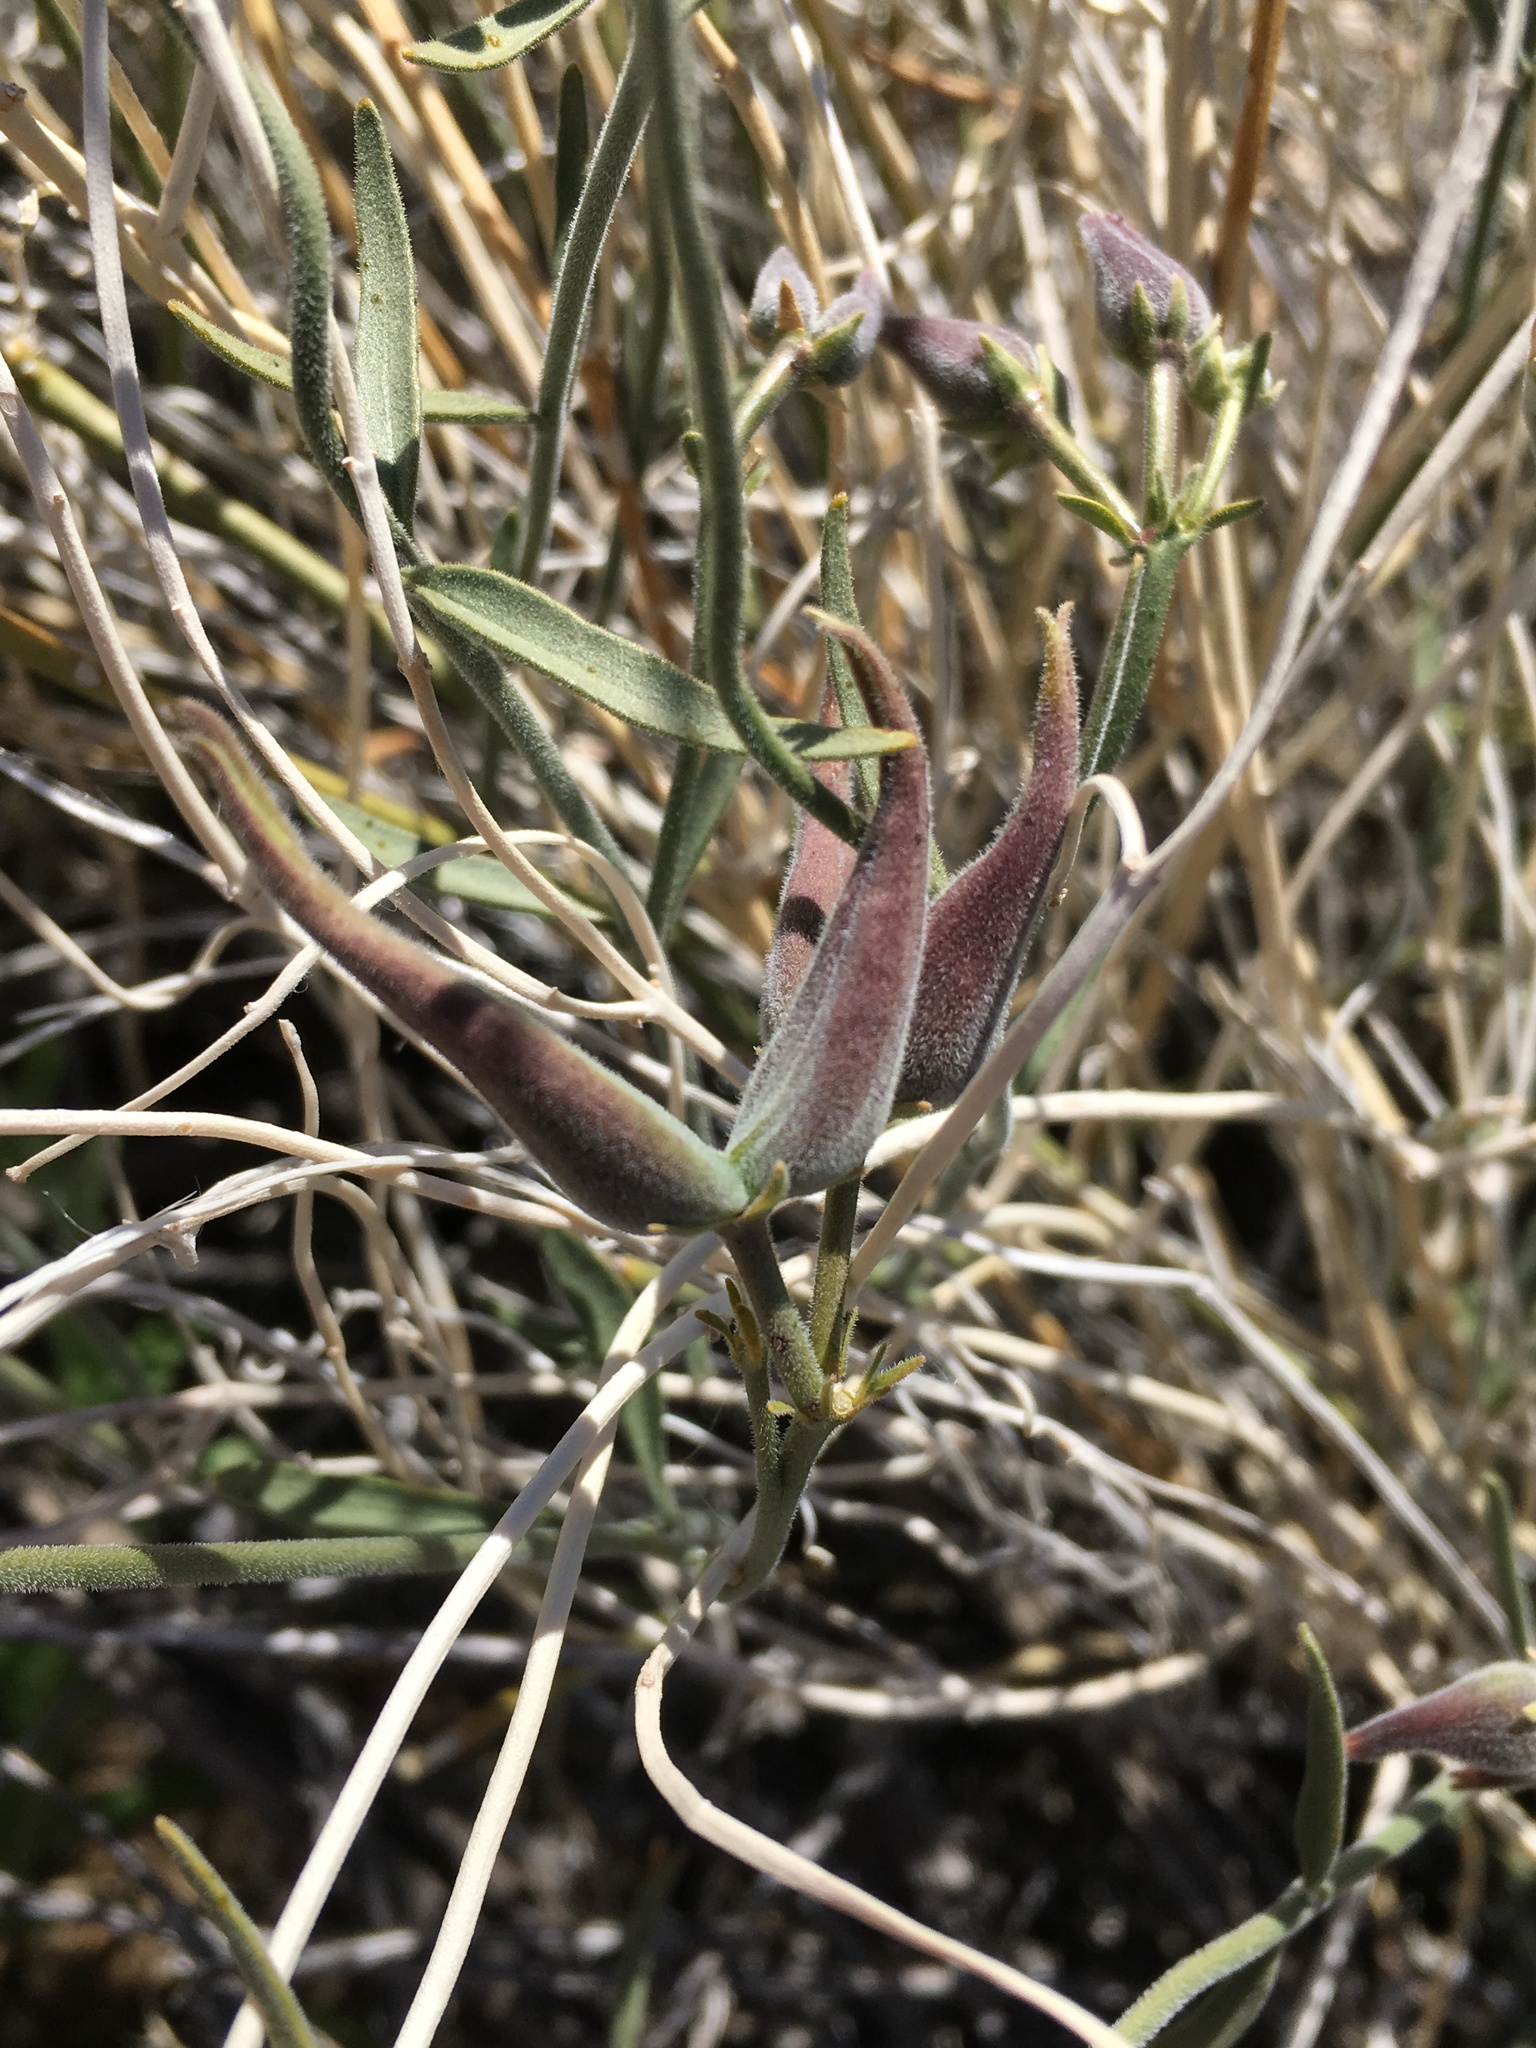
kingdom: Plantae
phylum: Tracheophyta
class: Magnoliopsida
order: Gentianales
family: Apocynaceae
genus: Funastrum
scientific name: Funastrum hirtellum
